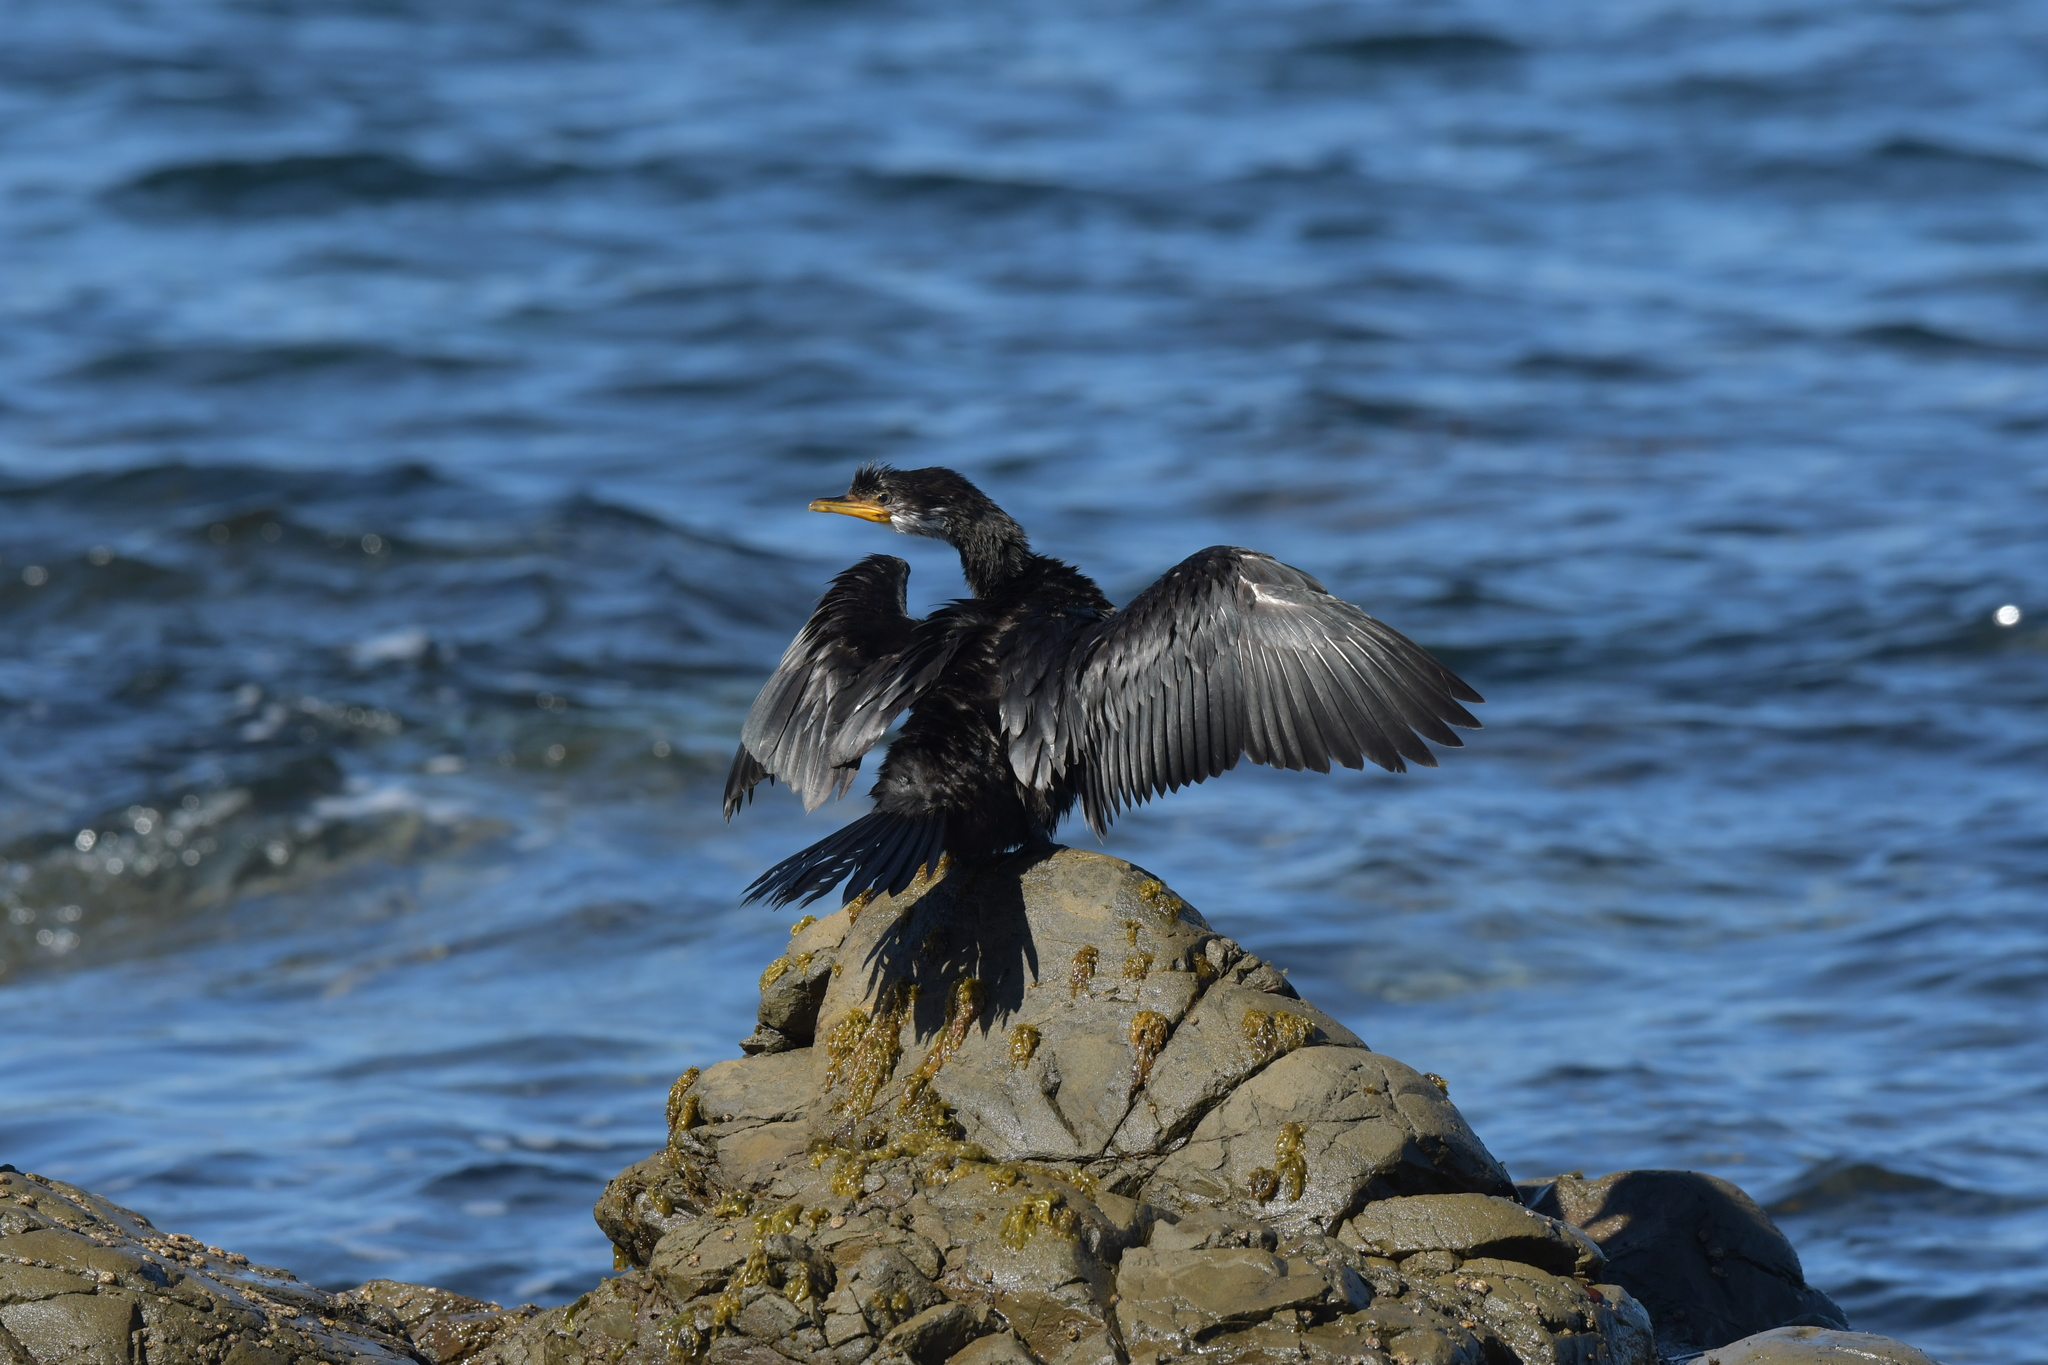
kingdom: Animalia
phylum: Chordata
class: Aves
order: Suliformes
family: Phalacrocoracidae
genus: Microcarbo
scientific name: Microcarbo melanoleucos
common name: Little pied cormorant
